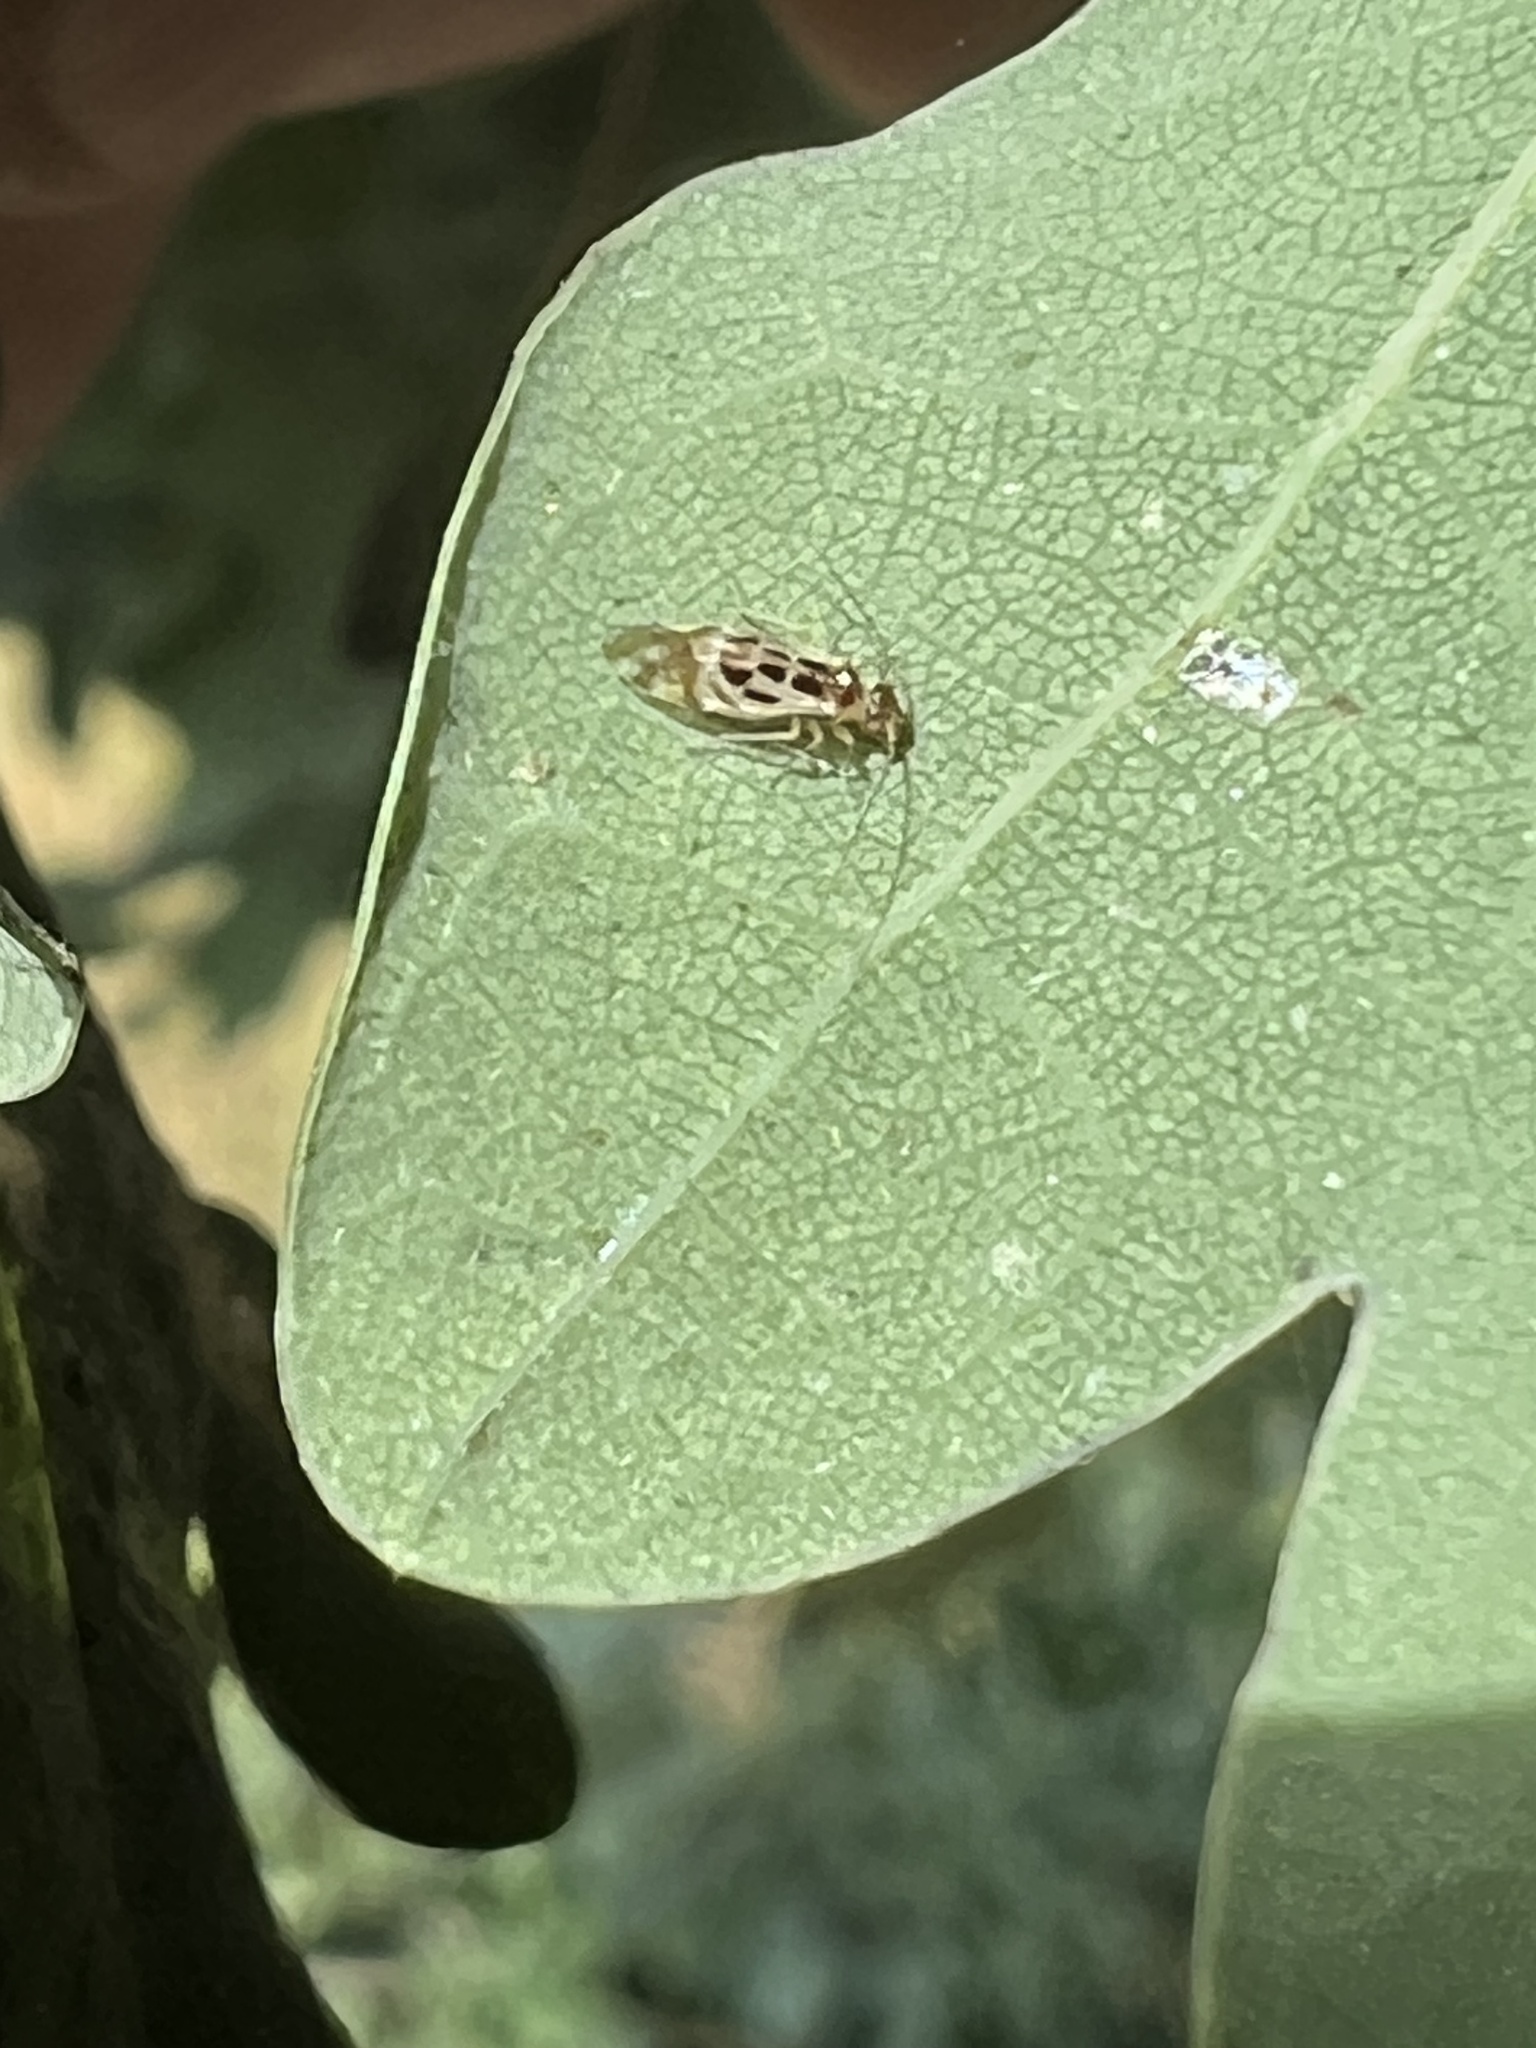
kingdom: Animalia
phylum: Arthropoda
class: Insecta
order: Psocodea
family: Stenopsocidae
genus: Graphopsocus
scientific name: Graphopsocus cruciatus
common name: Lizard bark louse
